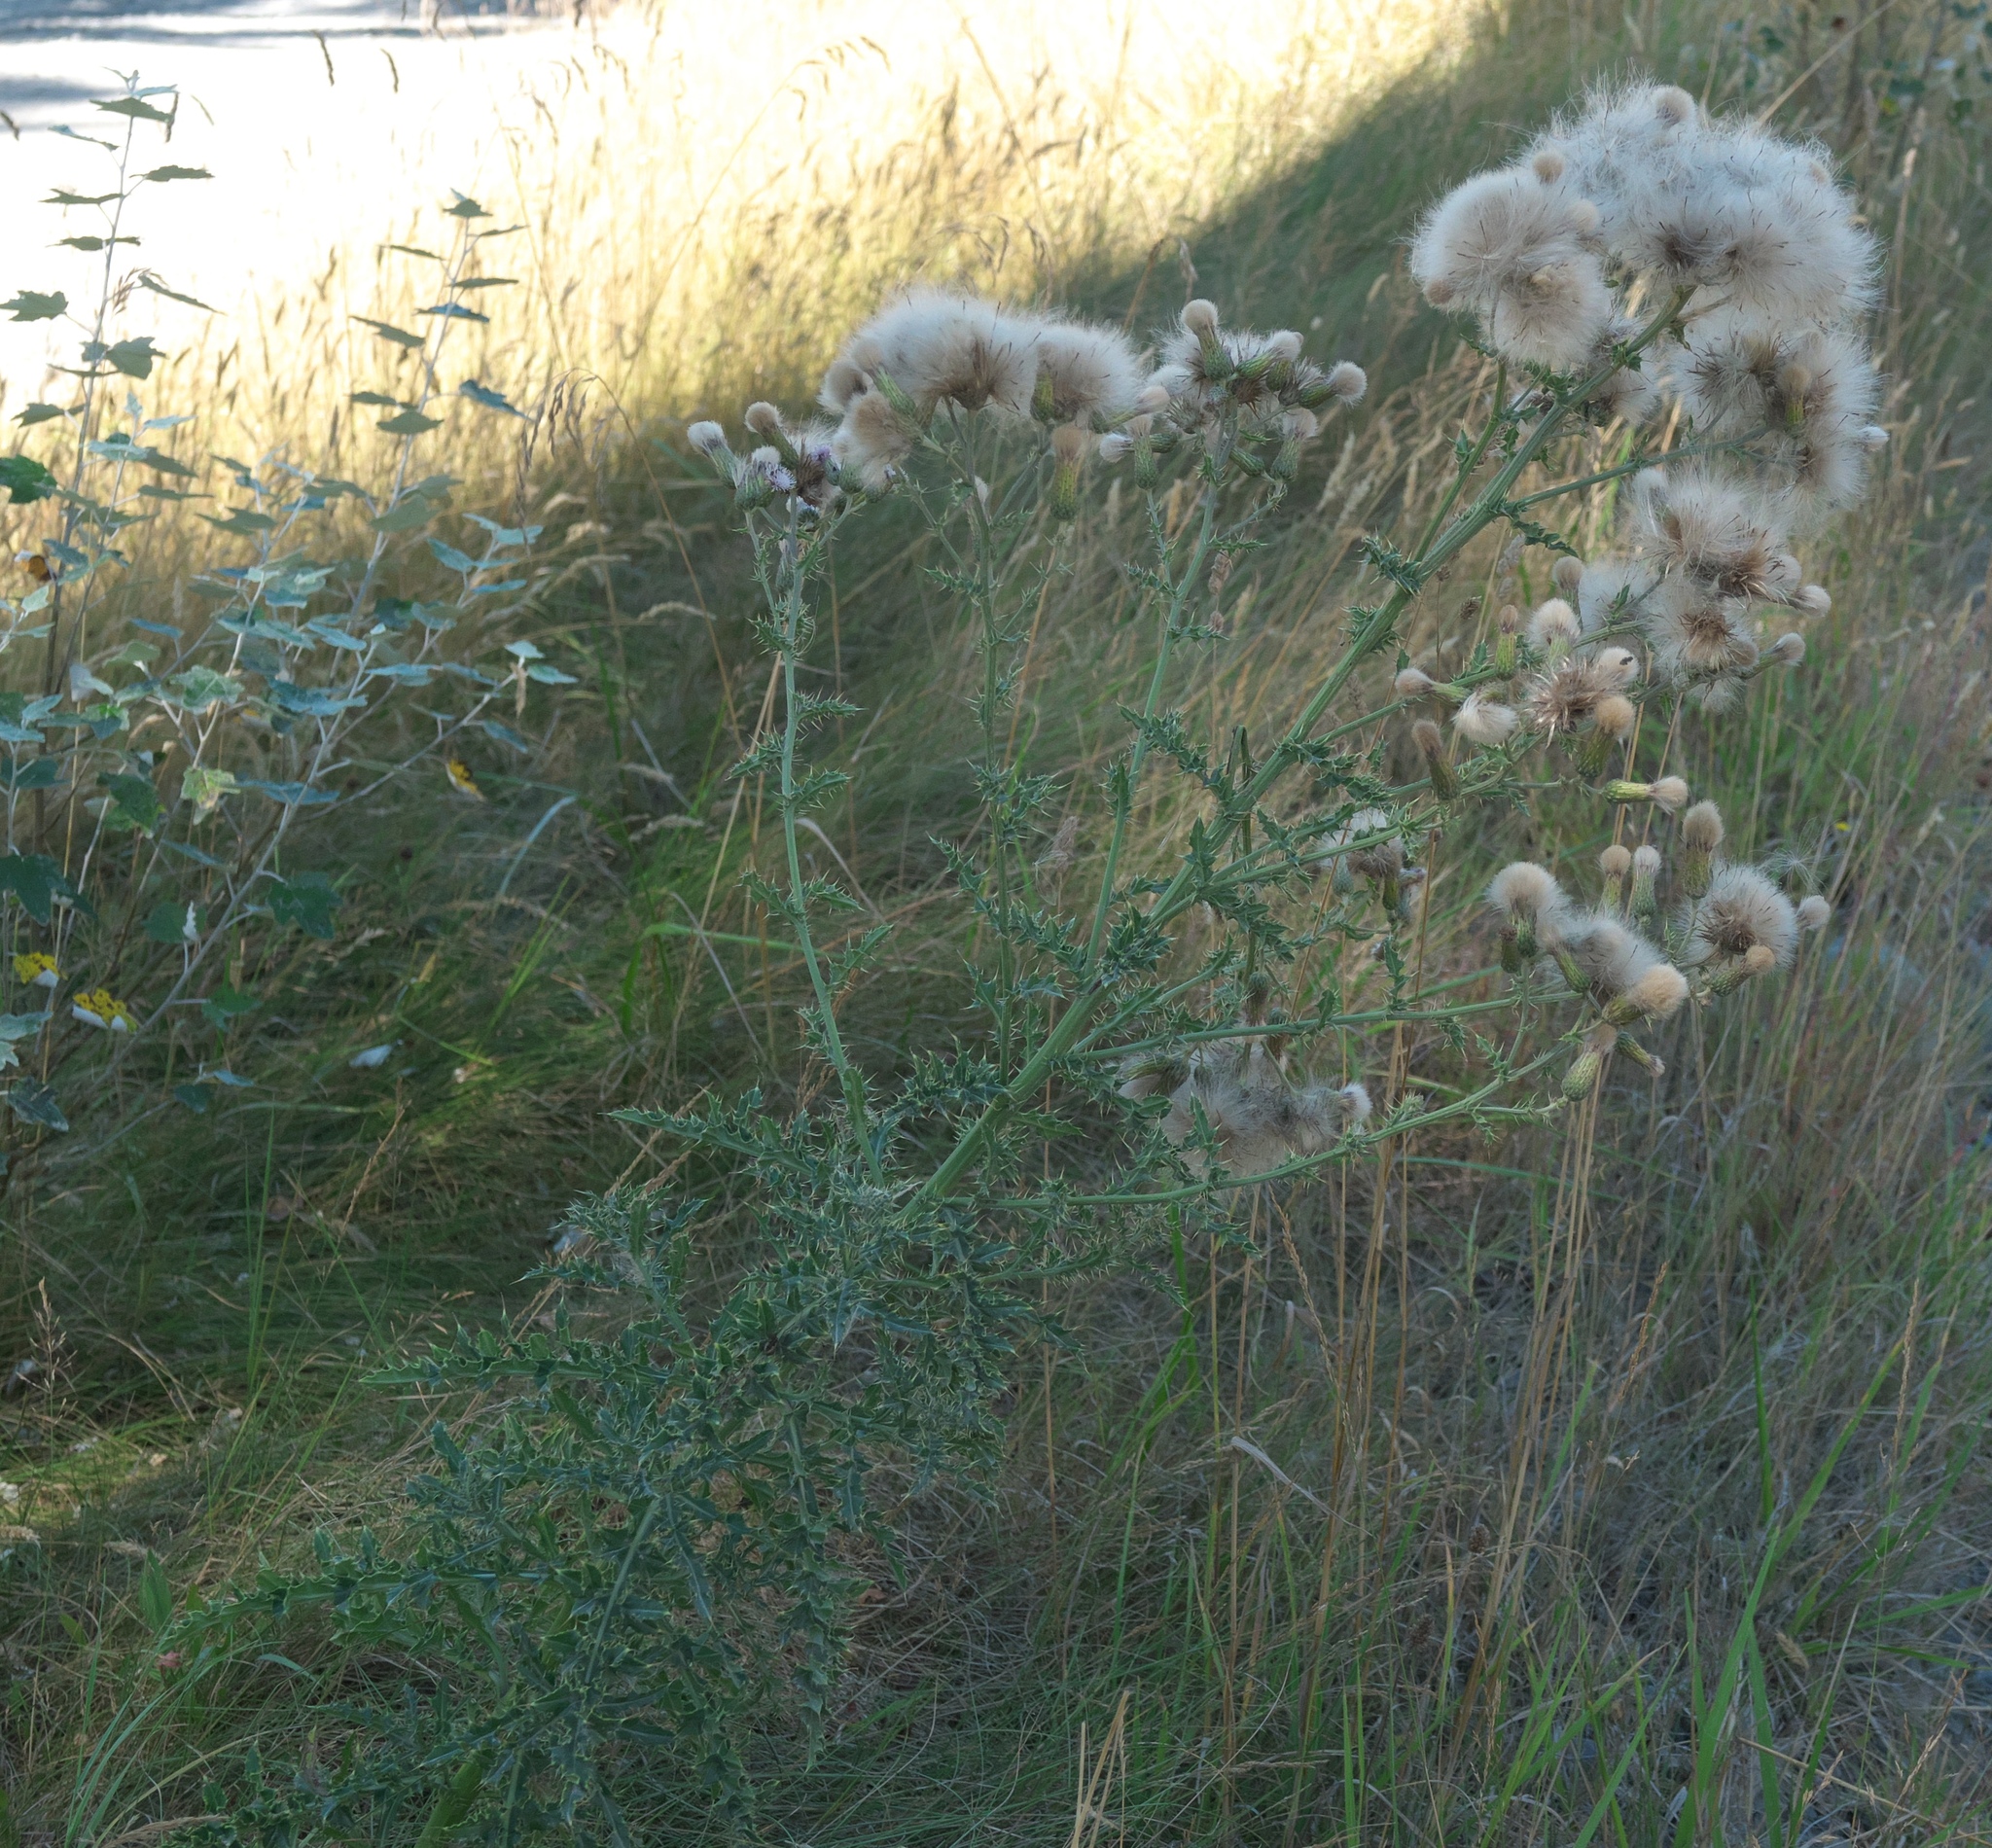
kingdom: Plantae
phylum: Tracheophyta
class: Magnoliopsida
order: Asterales
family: Asteraceae
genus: Cirsium
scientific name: Cirsium vulgare
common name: Bull thistle
